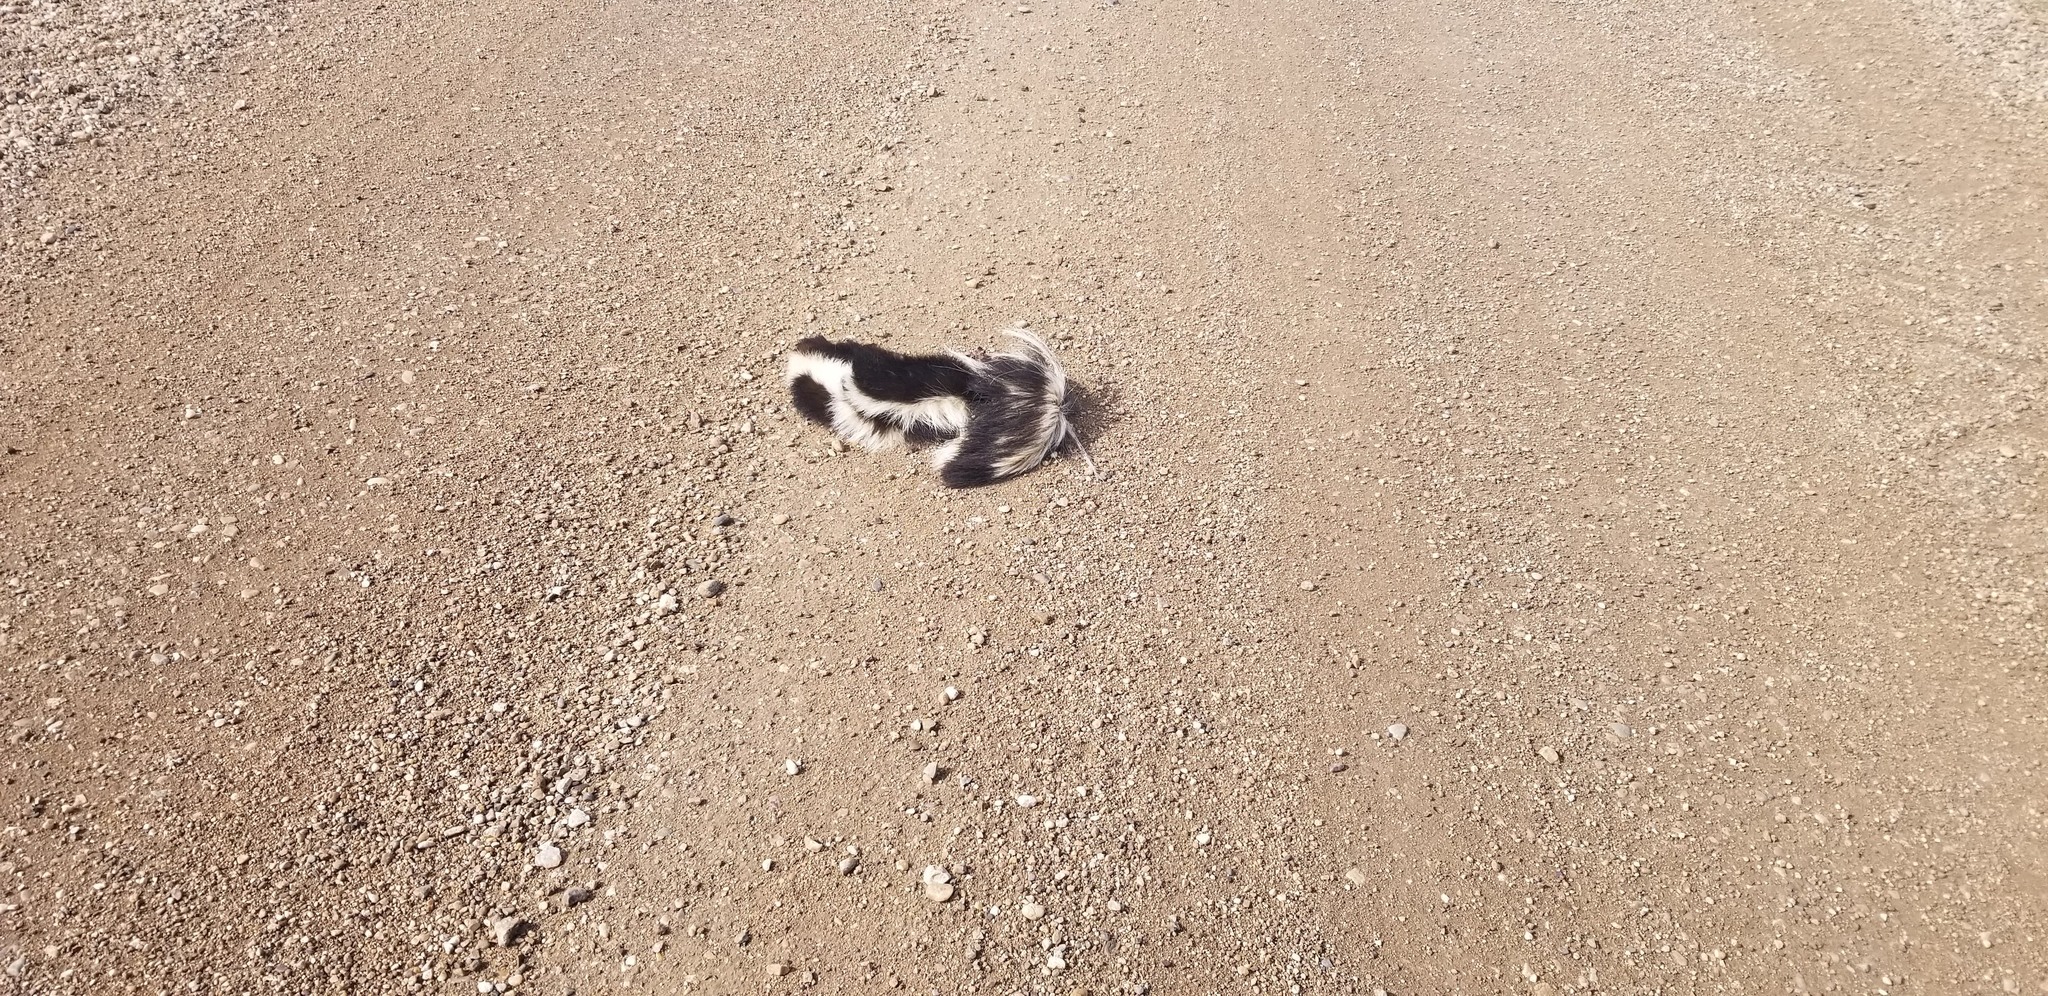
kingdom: Animalia
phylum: Chordata
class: Mammalia
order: Carnivora
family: Mephitidae
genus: Mephitis
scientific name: Mephitis mephitis
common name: Striped skunk
